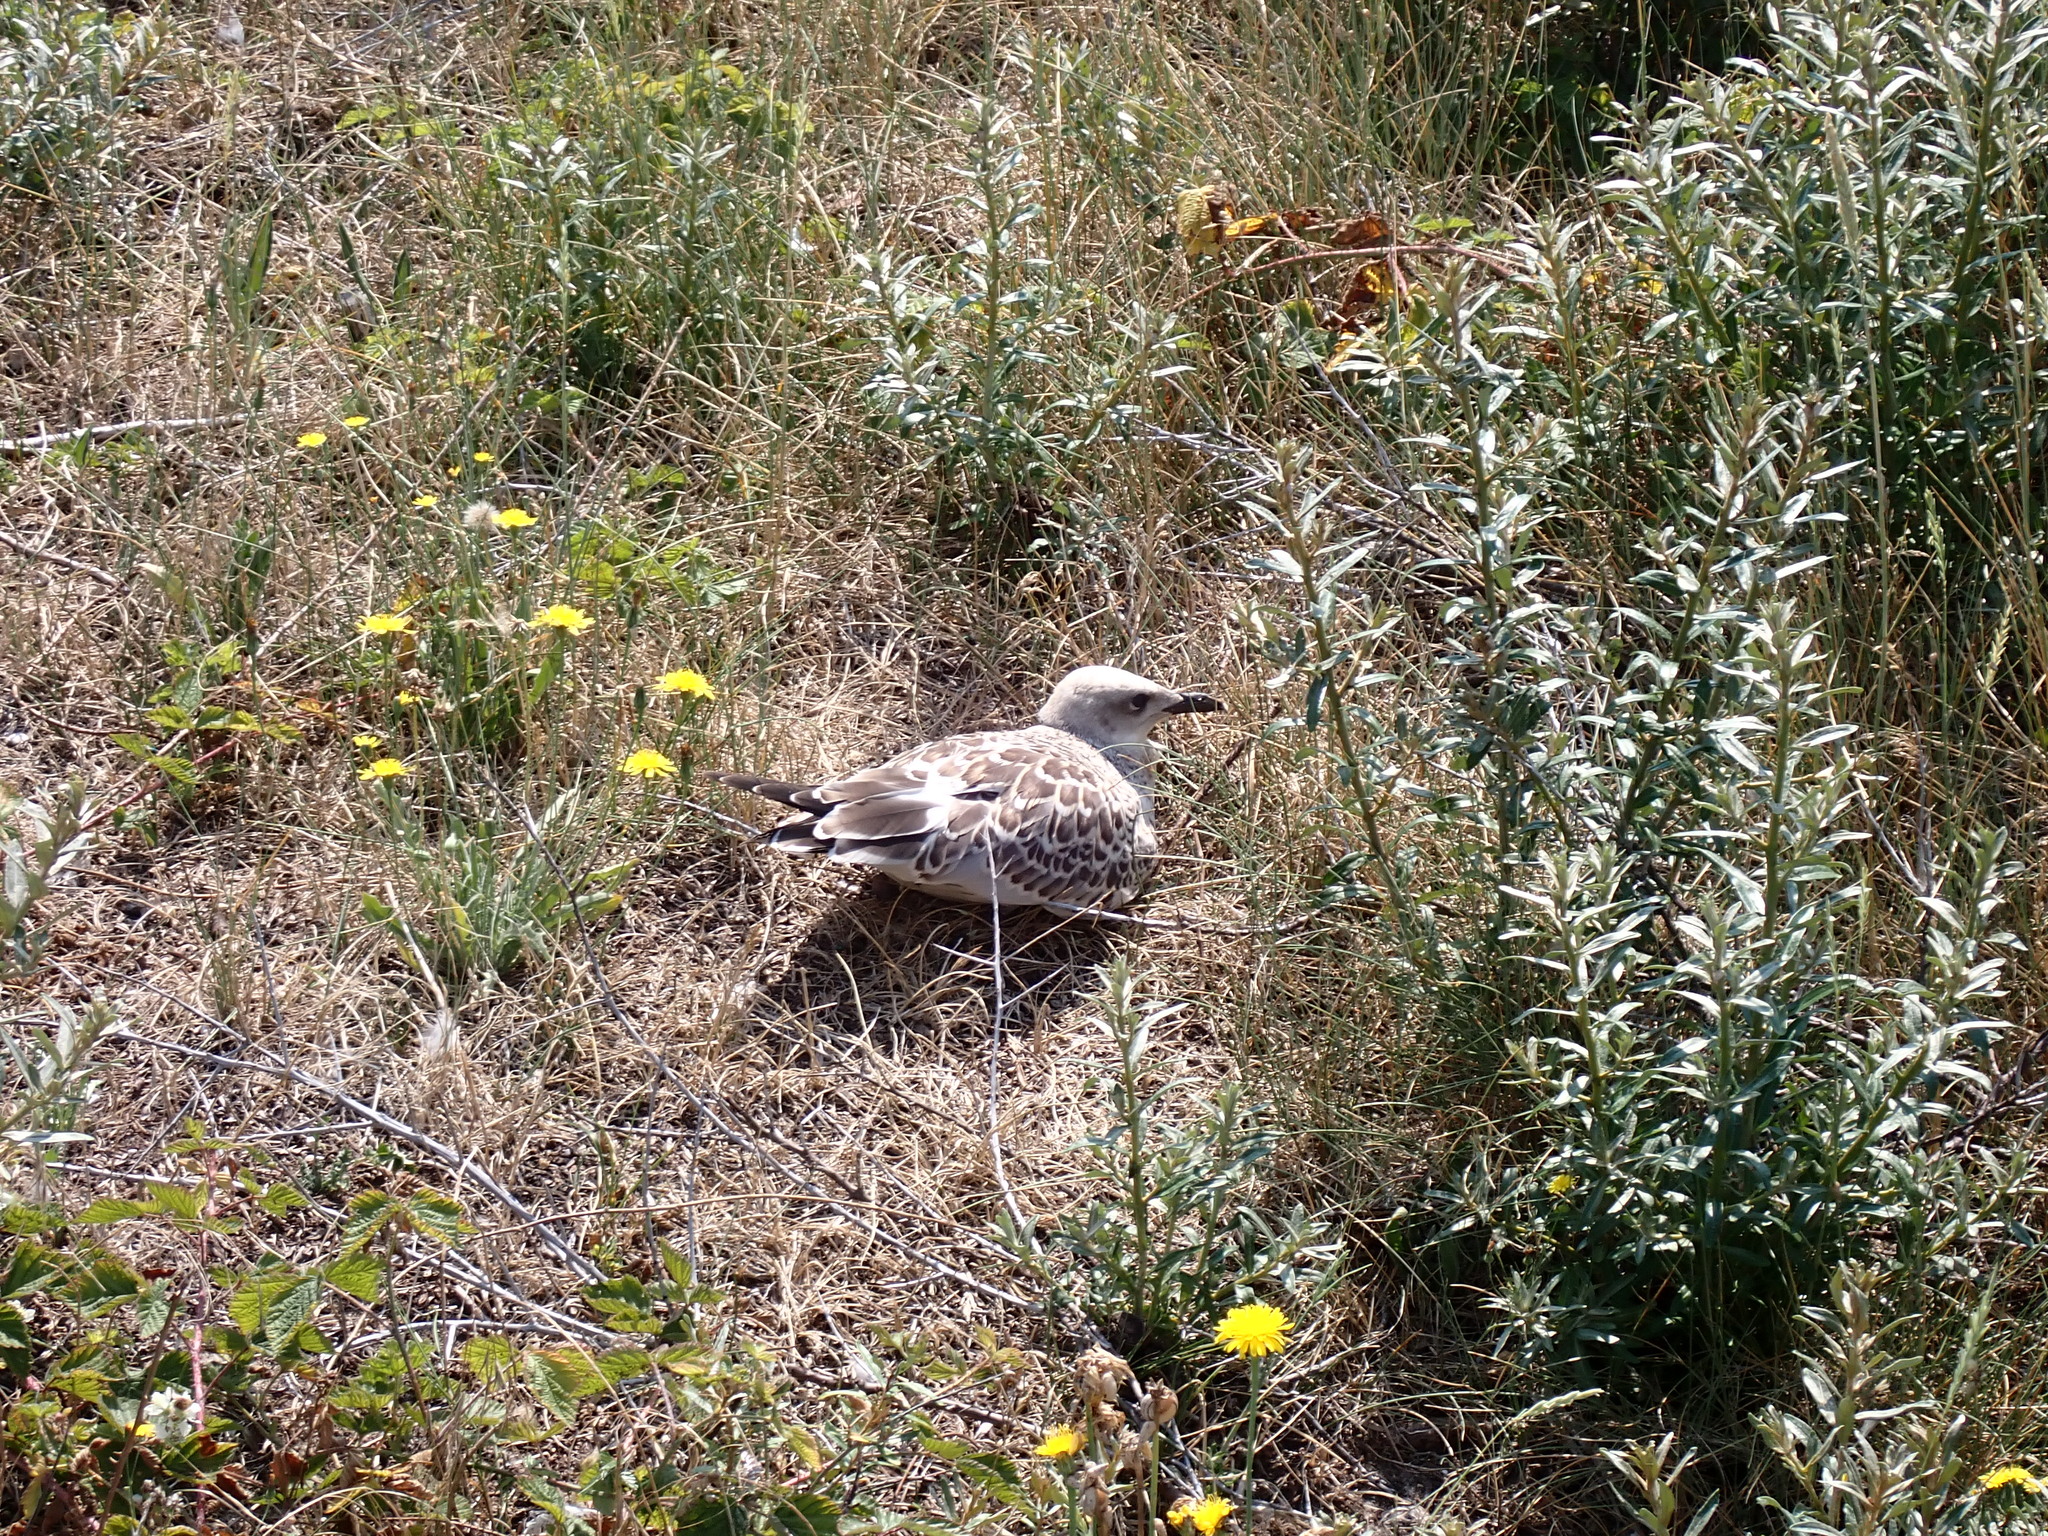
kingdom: Animalia
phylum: Chordata
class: Aves
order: Charadriiformes
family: Laridae
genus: Ichthyaetus
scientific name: Ichthyaetus melanocephalus
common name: Mediterranean gull
